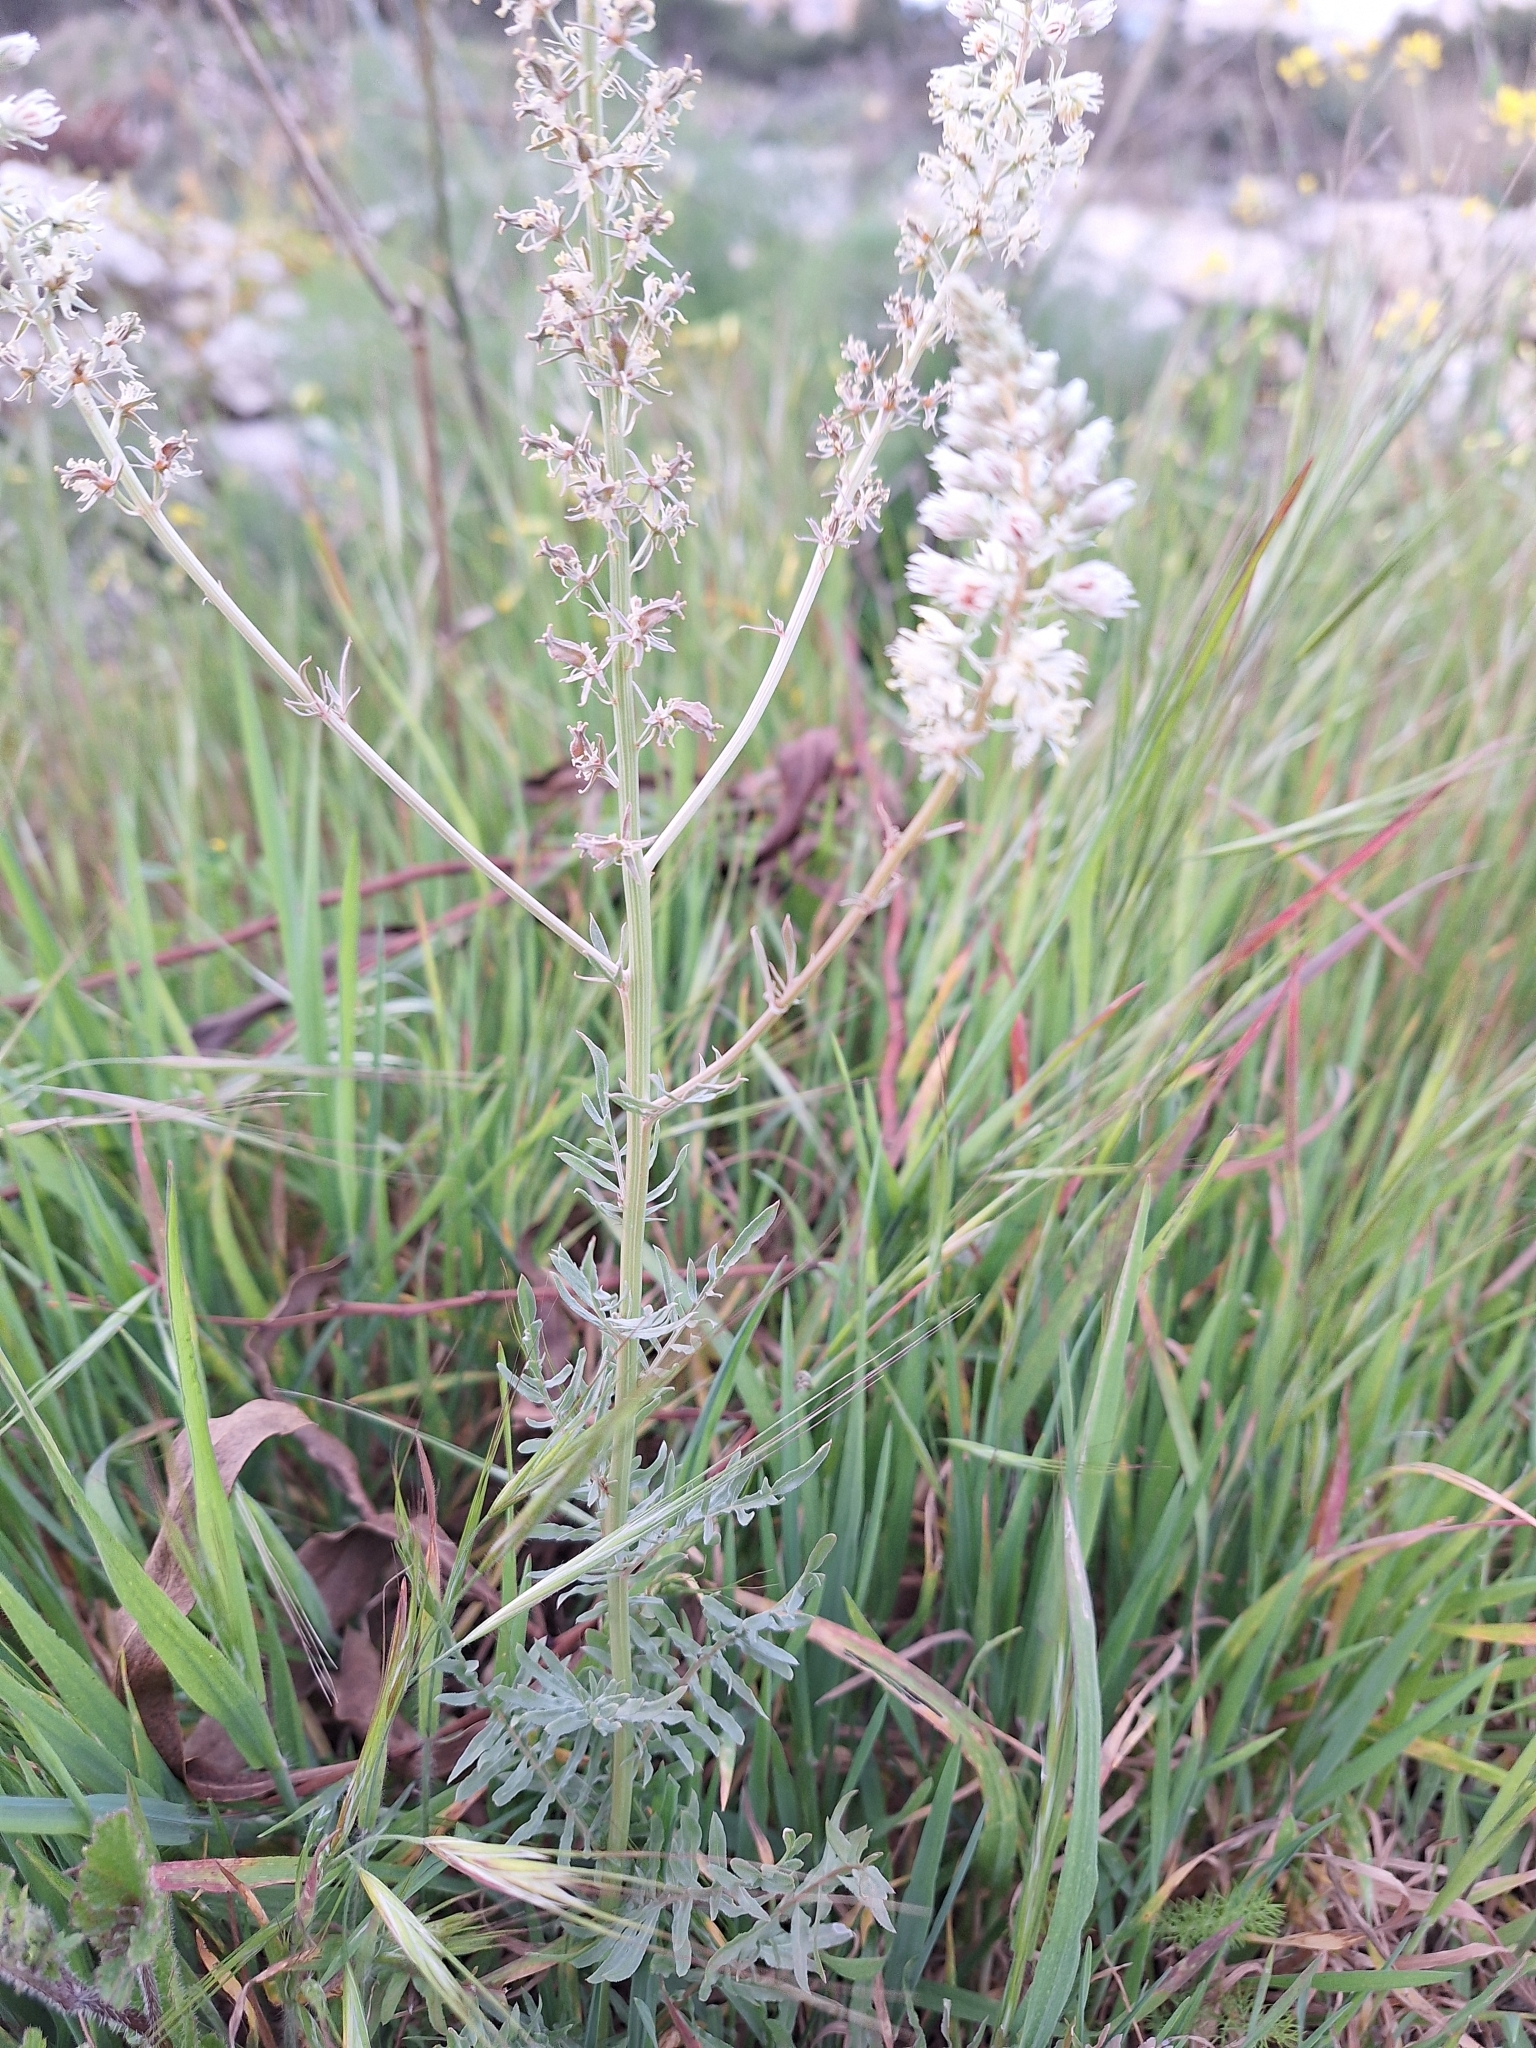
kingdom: Plantae
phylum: Tracheophyta
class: Magnoliopsida
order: Brassicales
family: Resedaceae
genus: Reseda
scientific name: Reseda alba
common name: White mignonette
